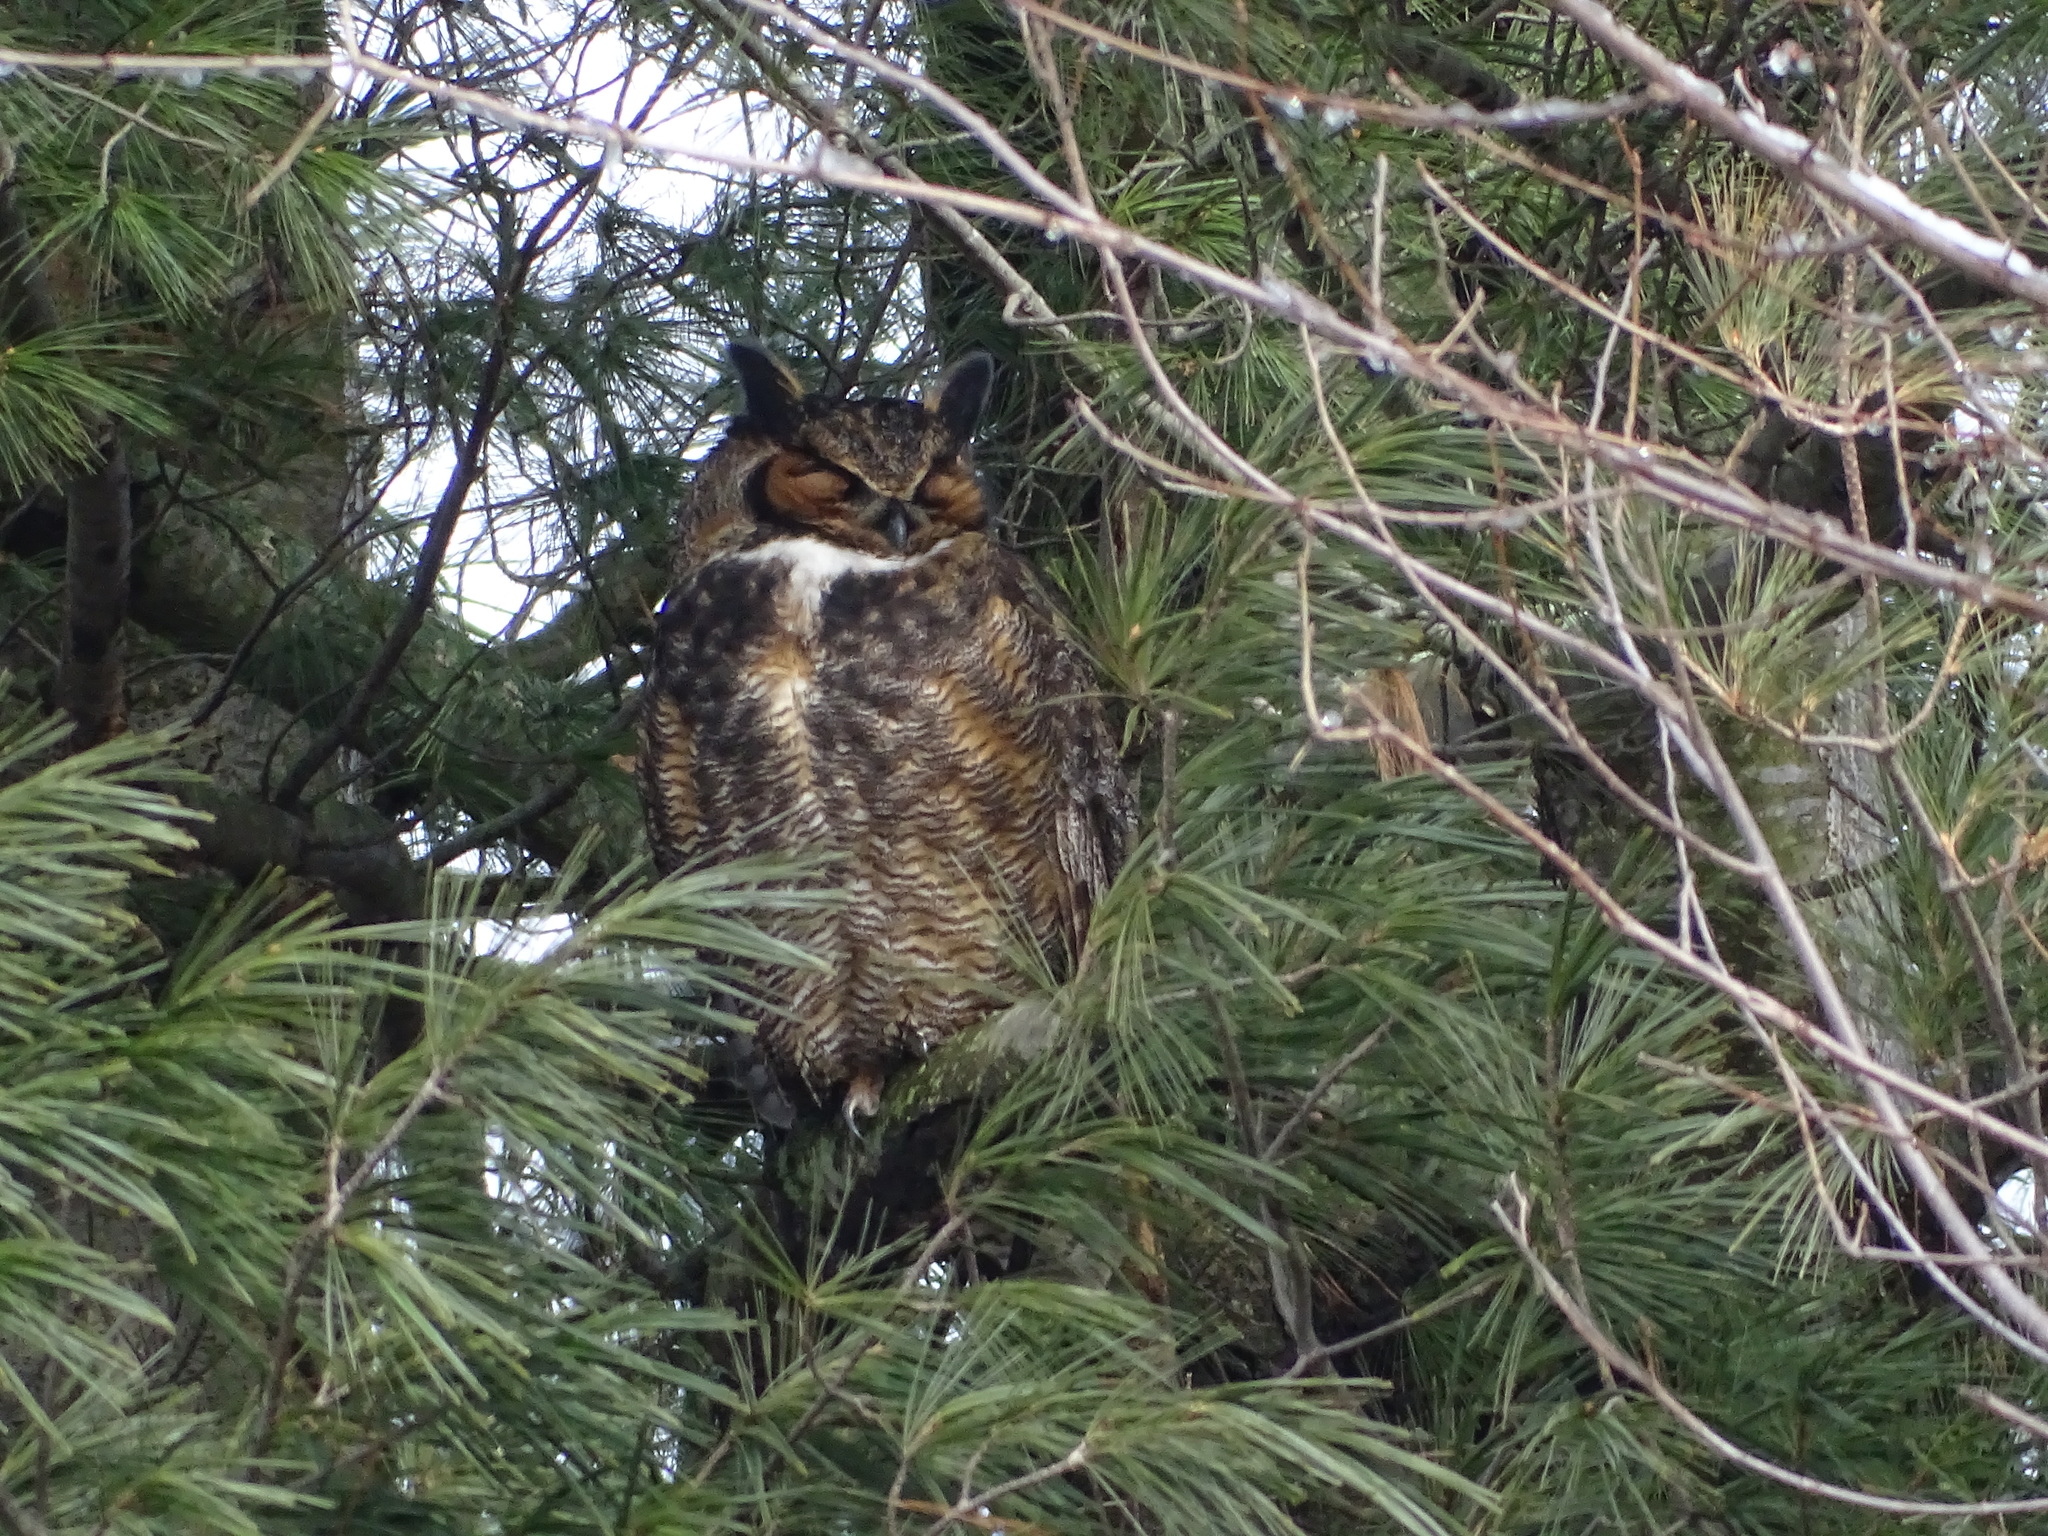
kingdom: Animalia
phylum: Chordata
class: Aves
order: Strigiformes
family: Strigidae
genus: Bubo
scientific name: Bubo virginianus
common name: Great horned owl
